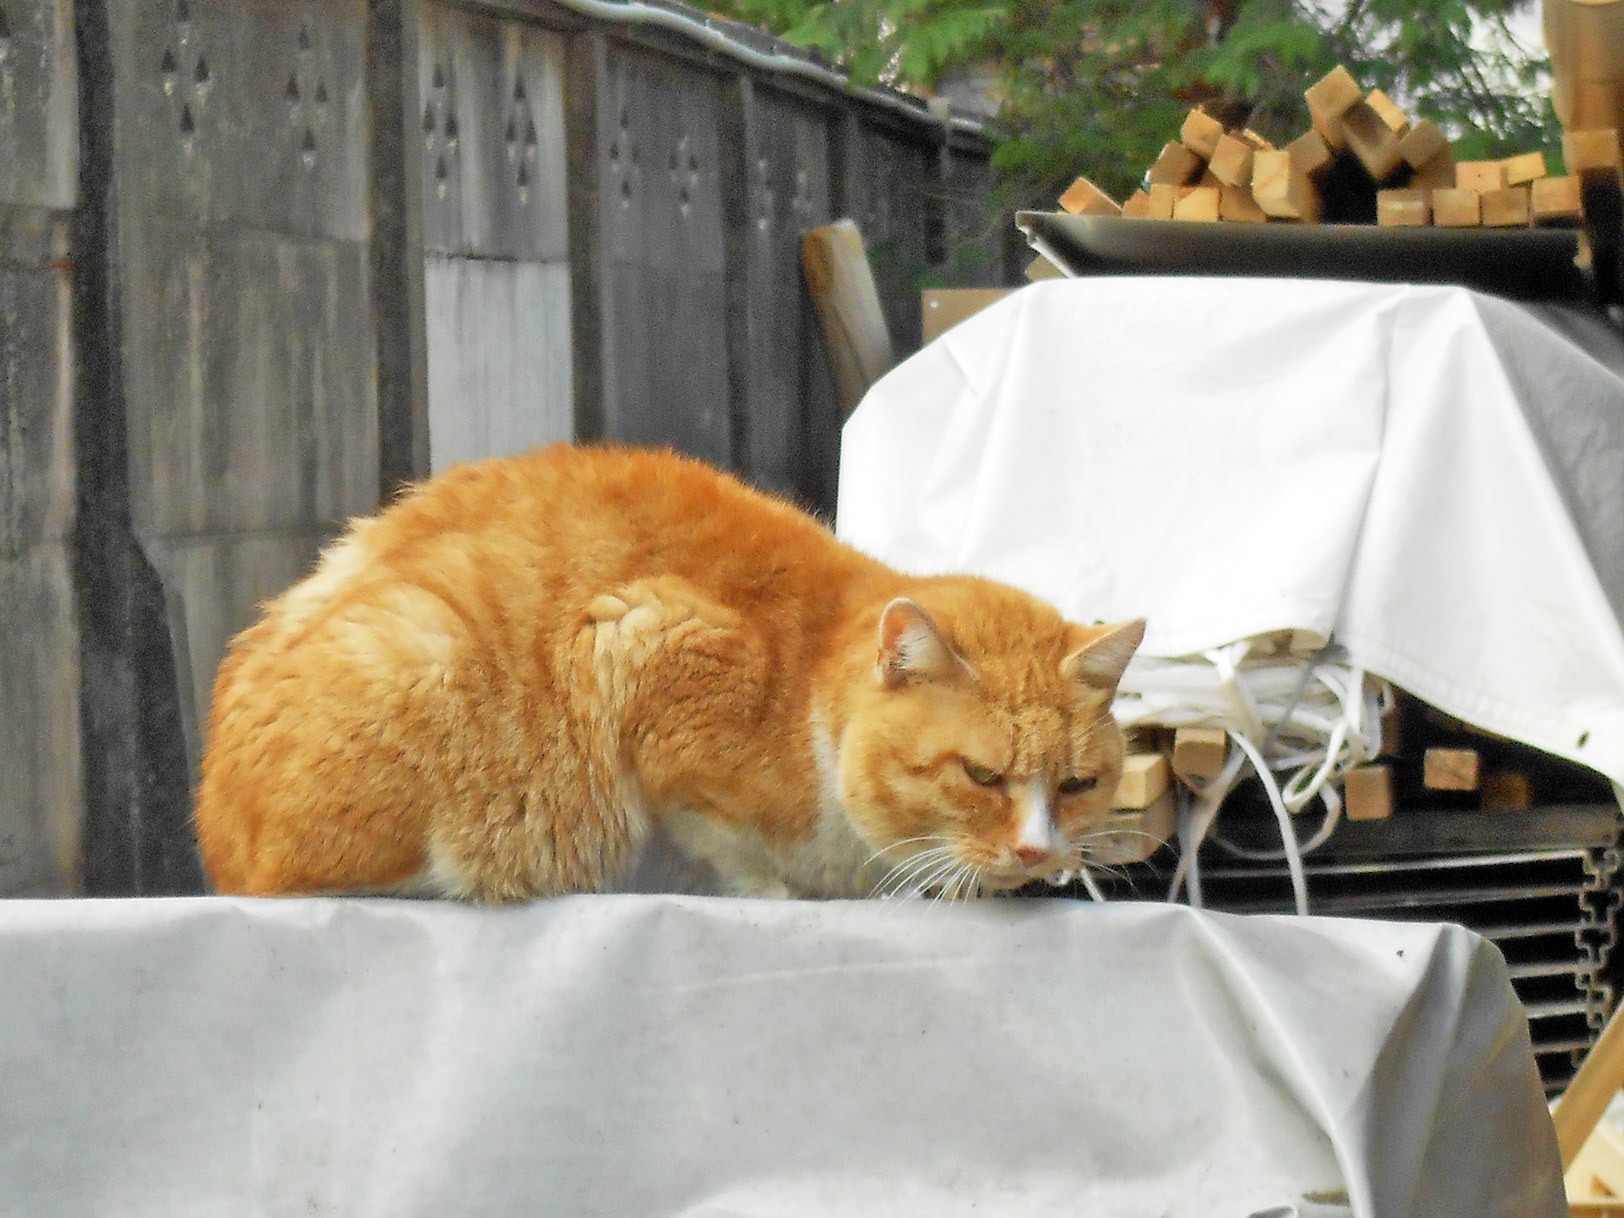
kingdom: Animalia
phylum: Chordata
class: Mammalia
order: Carnivora
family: Felidae
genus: Felis
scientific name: Felis catus
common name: Domestic cat
